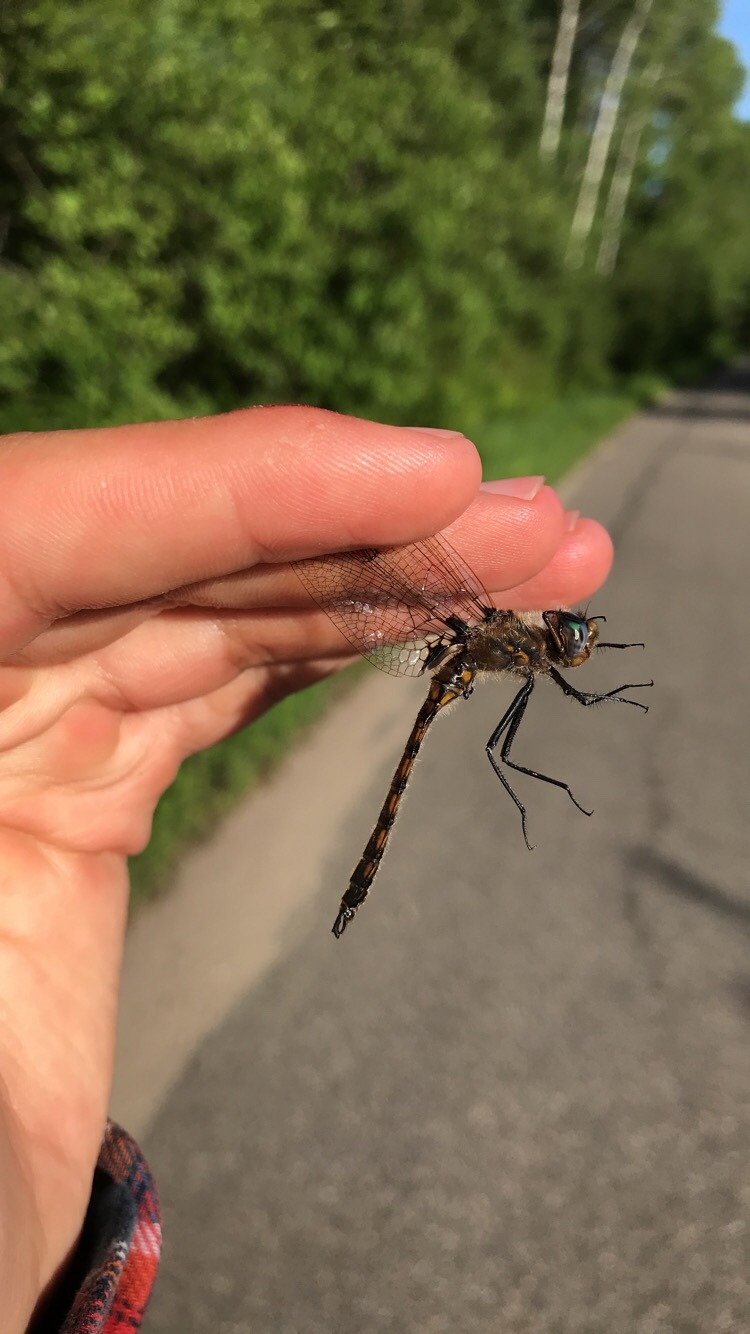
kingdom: Animalia
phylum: Arthropoda
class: Insecta
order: Odonata
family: Corduliidae
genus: Epitheca
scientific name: Epitheca canis
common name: Beaverpond baskettail
